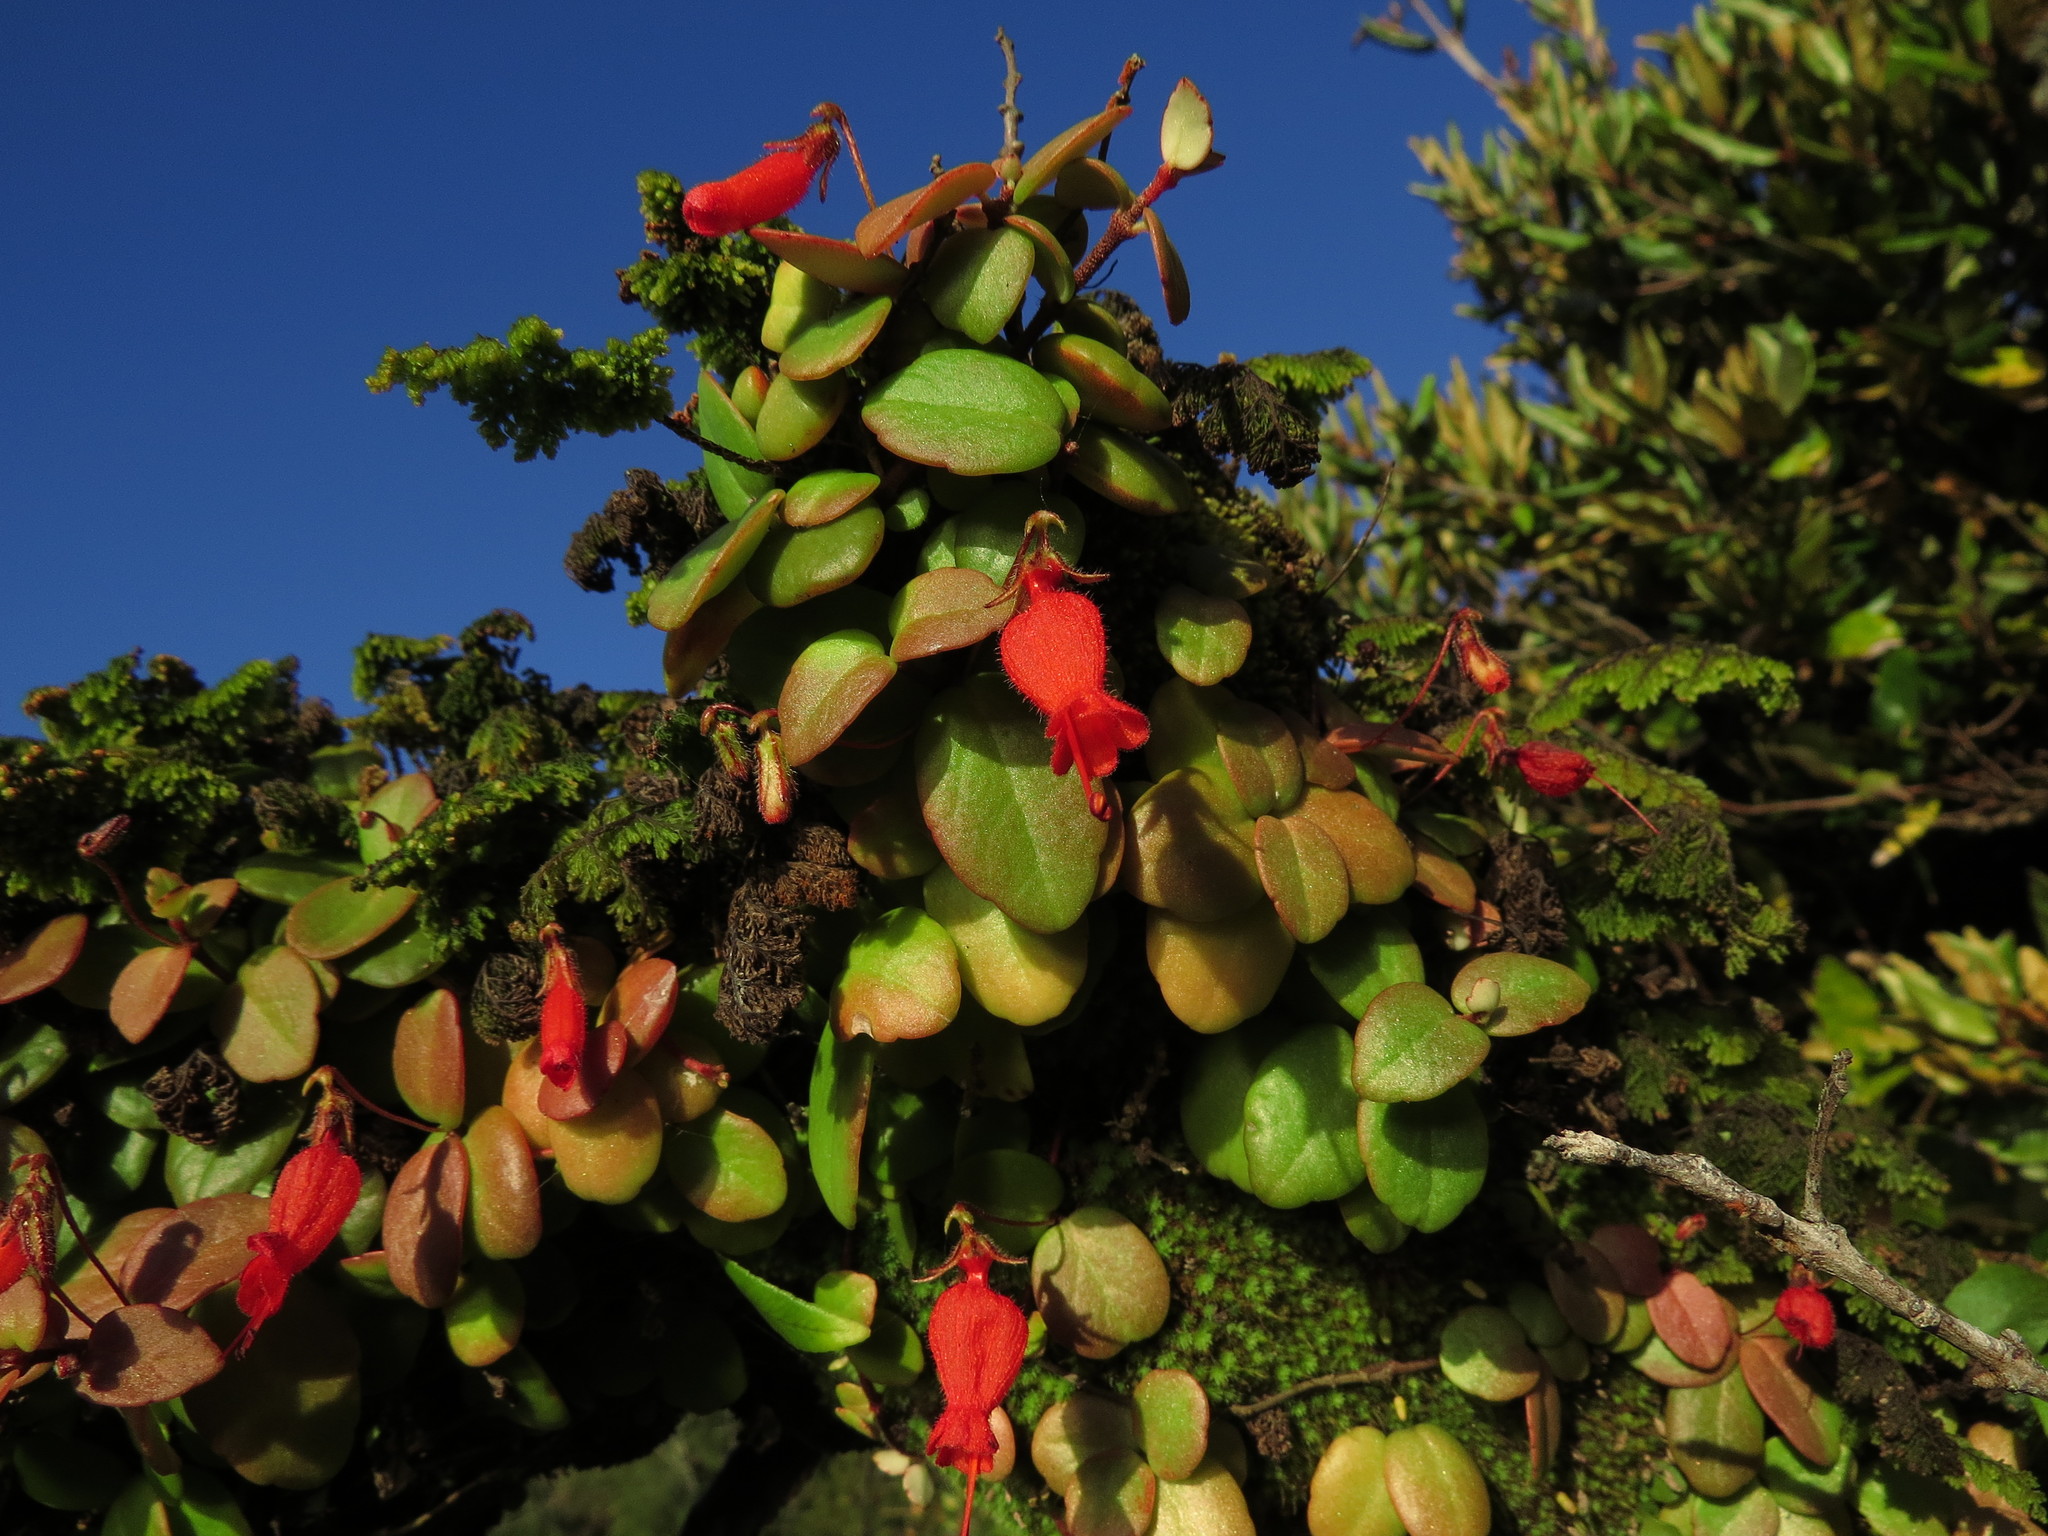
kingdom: Plantae
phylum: Tracheophyta
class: Magnoliopsida
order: Lamiales
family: Gesneriaceae
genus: Sarmienta
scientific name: Sarmienta scandens
